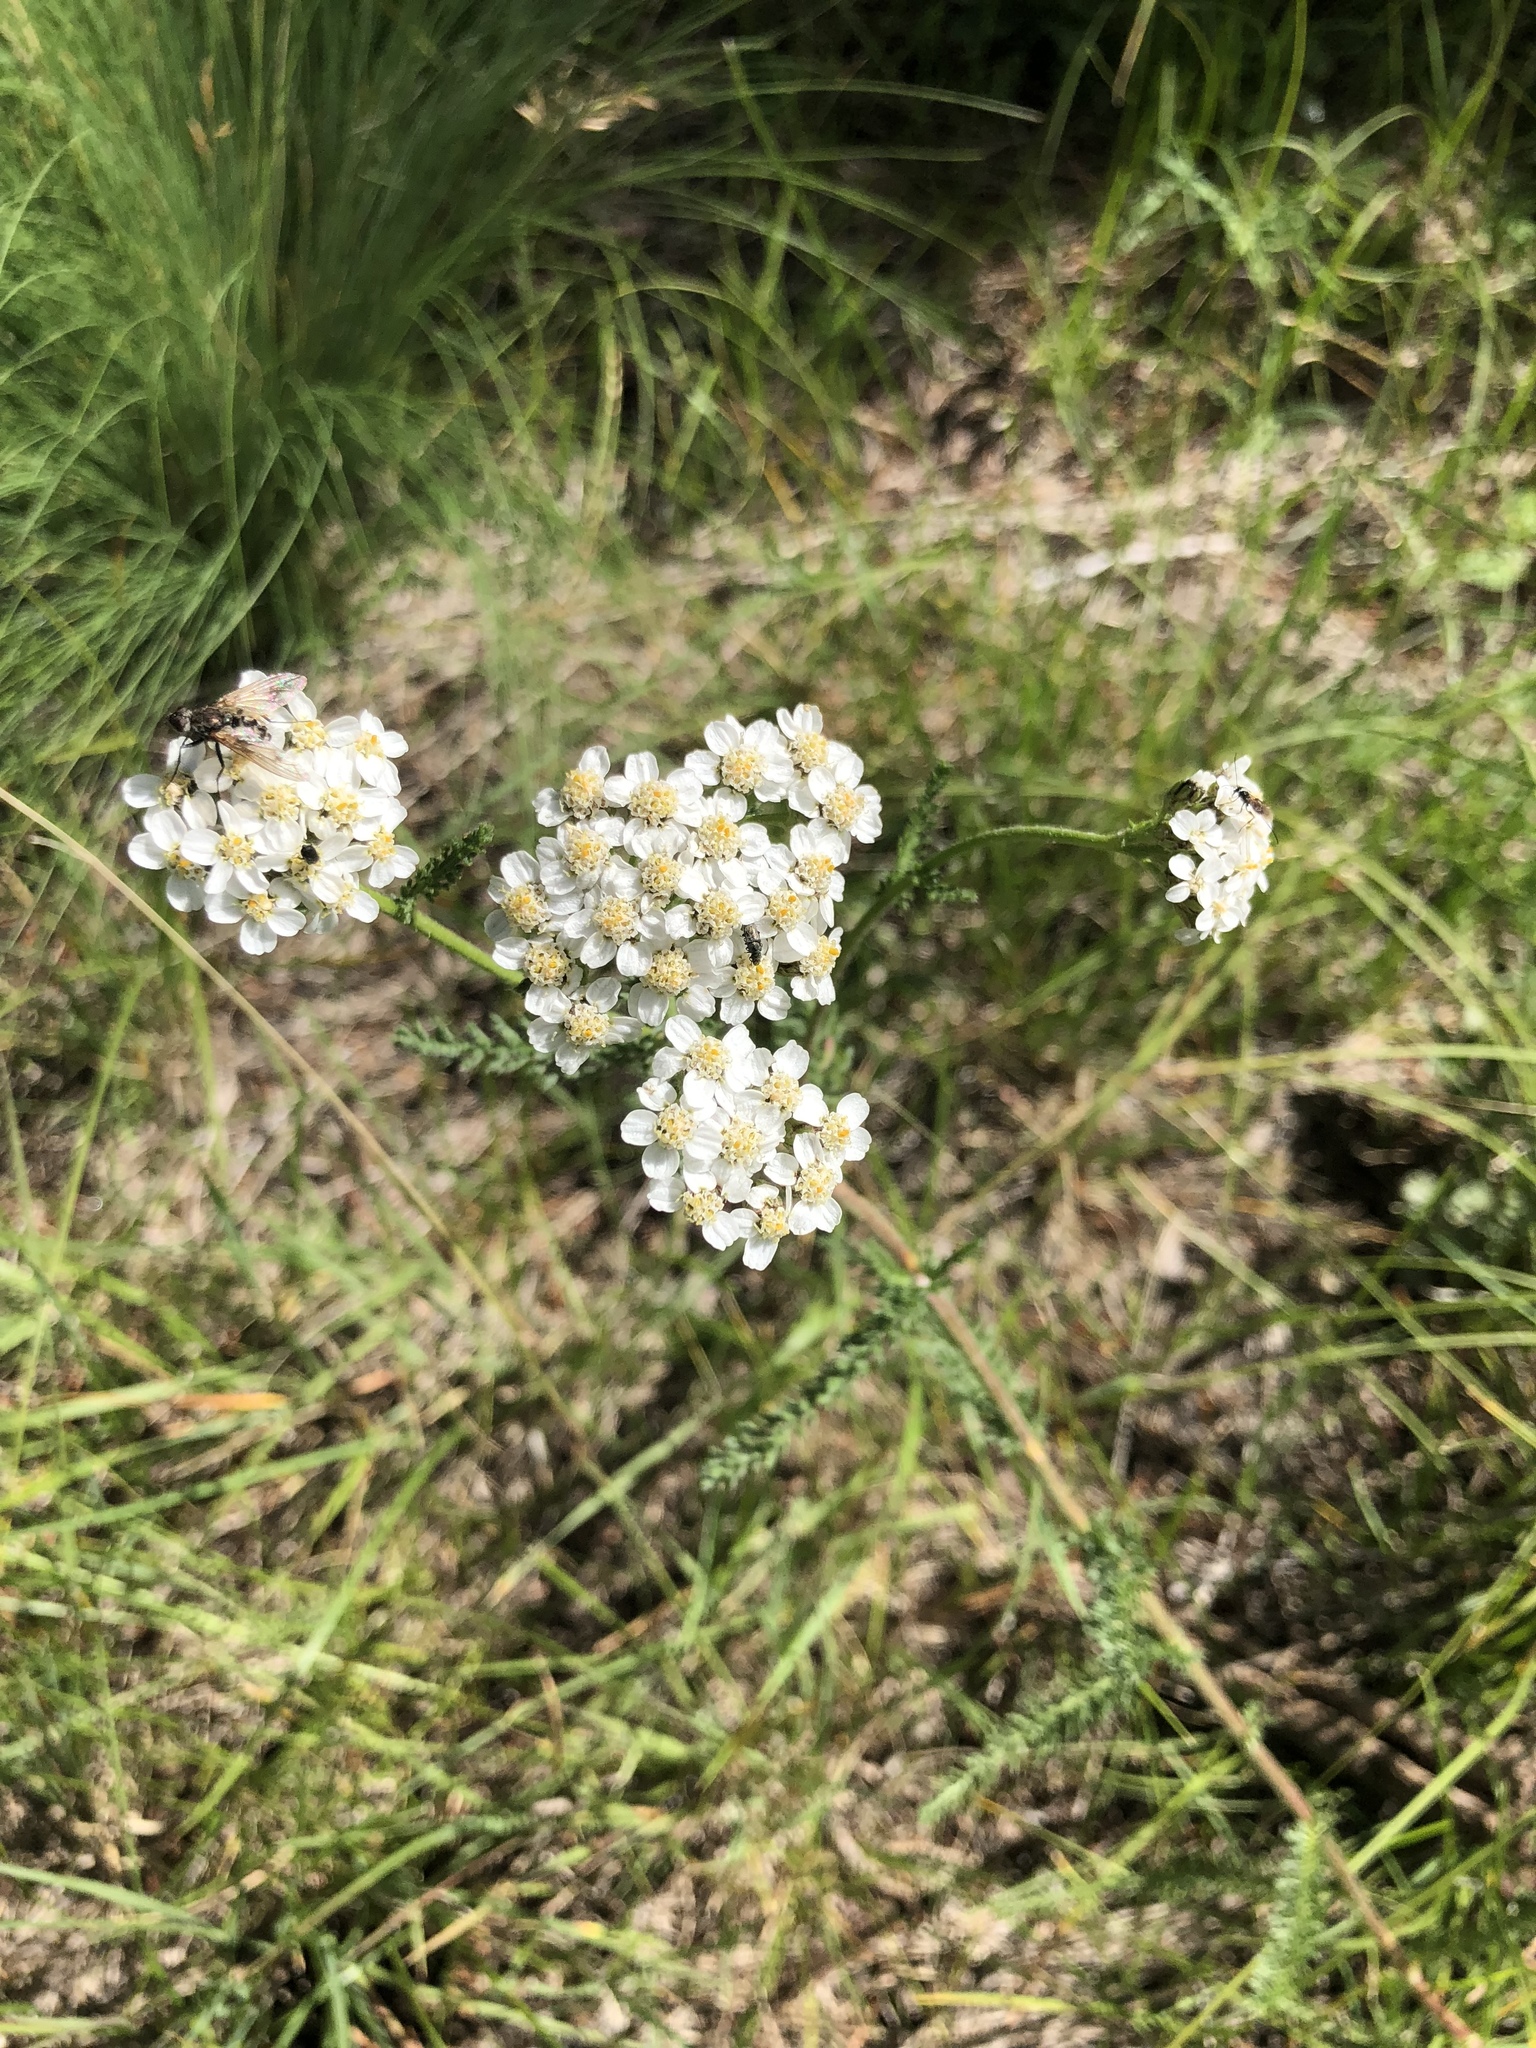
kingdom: Plantae
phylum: Tracheophyta
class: Magnoliopsida
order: Asterales
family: Asteraceae
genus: Achillea
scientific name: Achillea millefolium
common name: Yarrow
